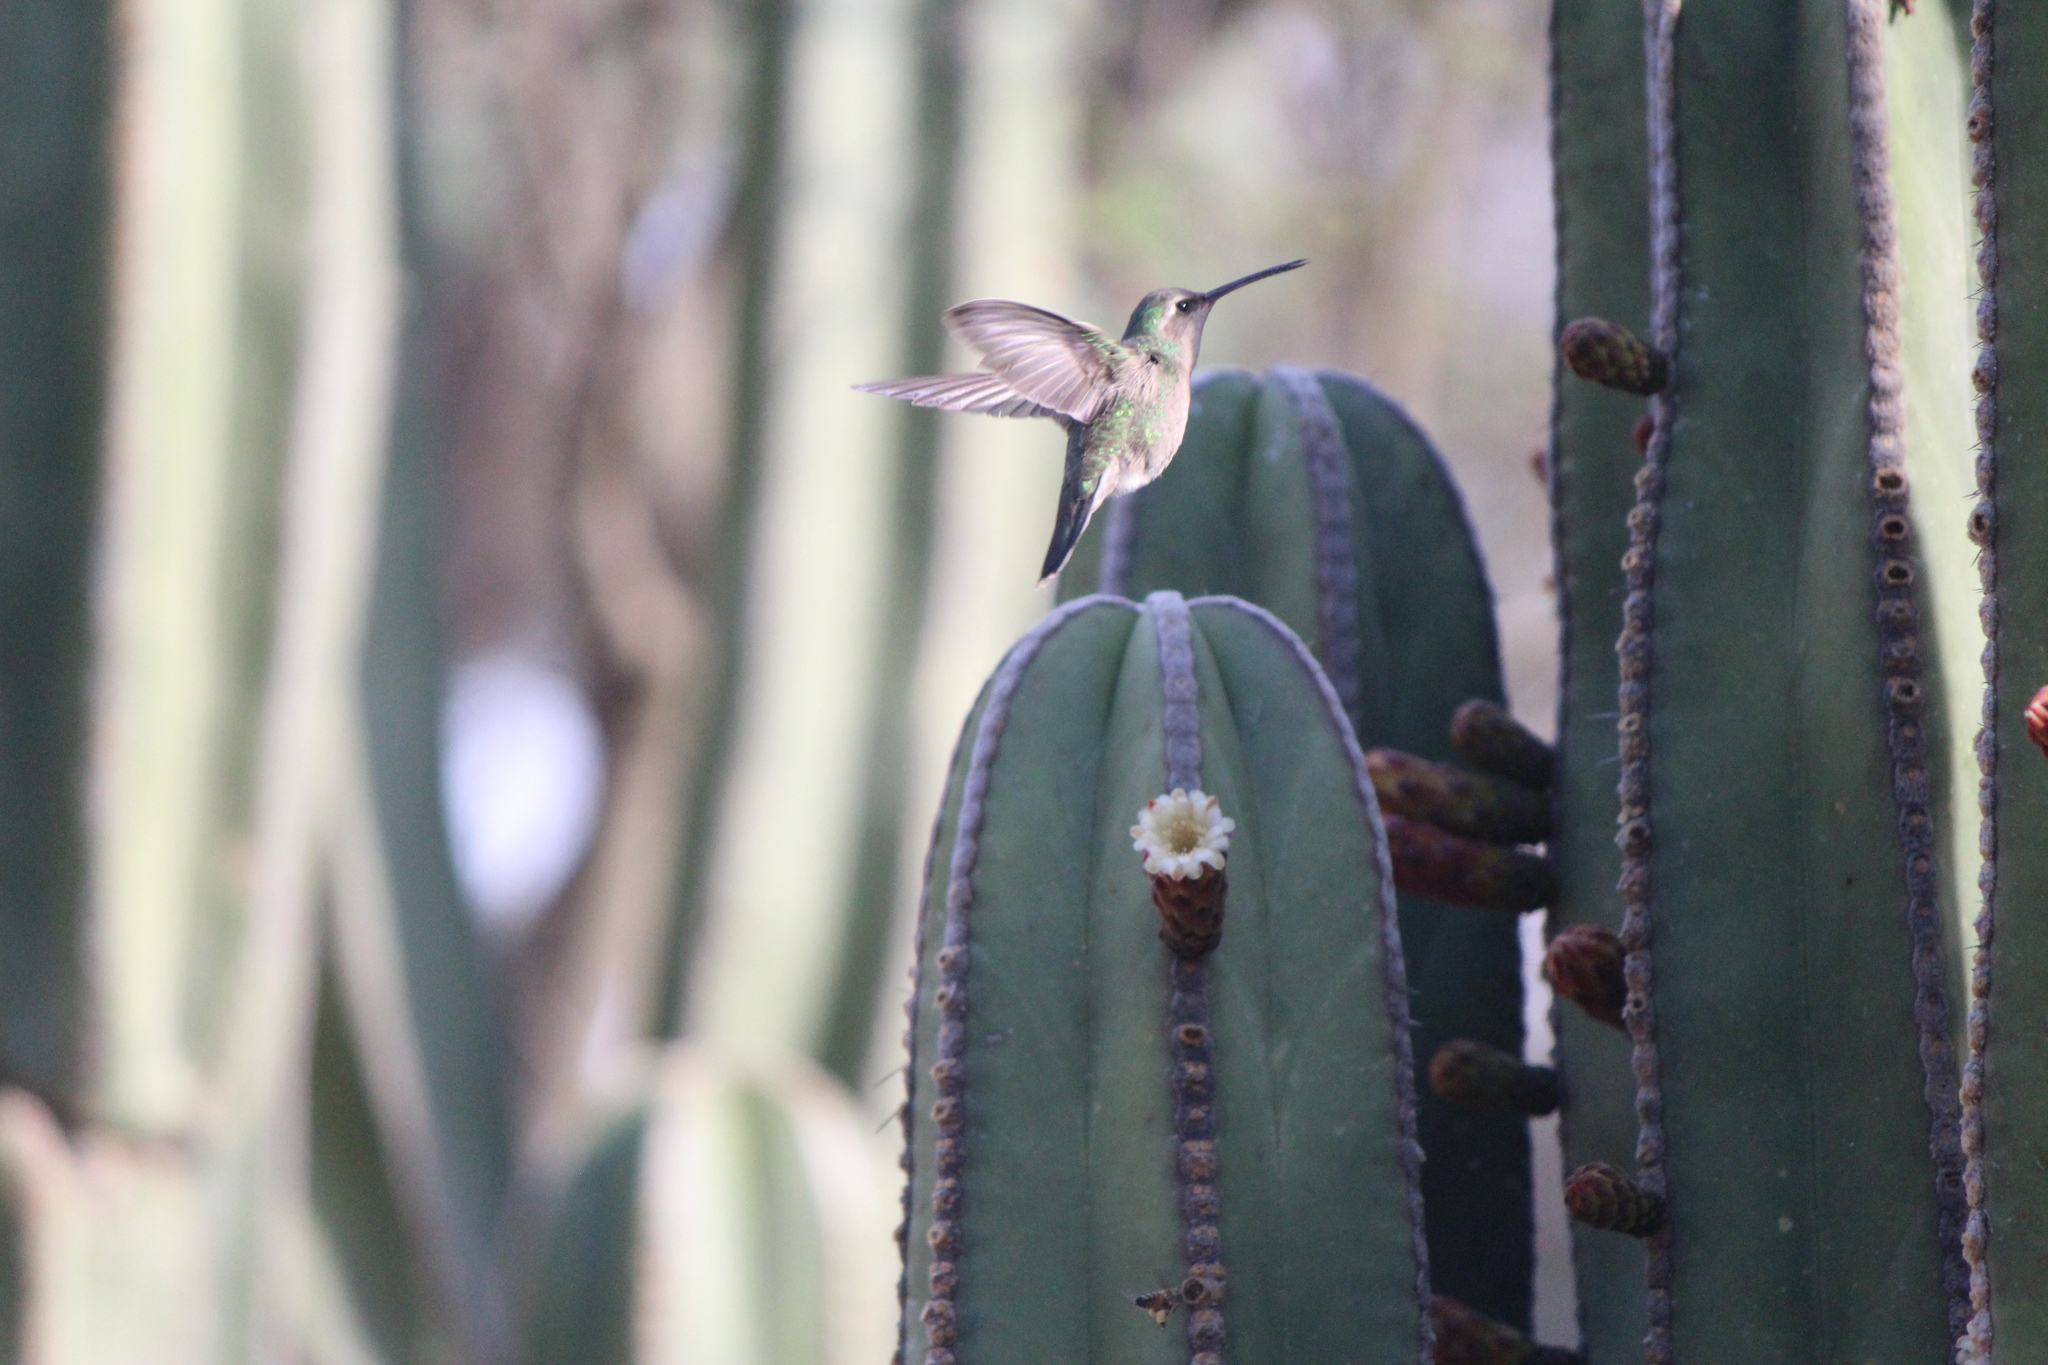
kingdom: Animalia
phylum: Chordata
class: Aves
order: Apodiformes
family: Trochilidae
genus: Cynanthus
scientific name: Cynanthus latirostris
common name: Broad-billed hummingbird
